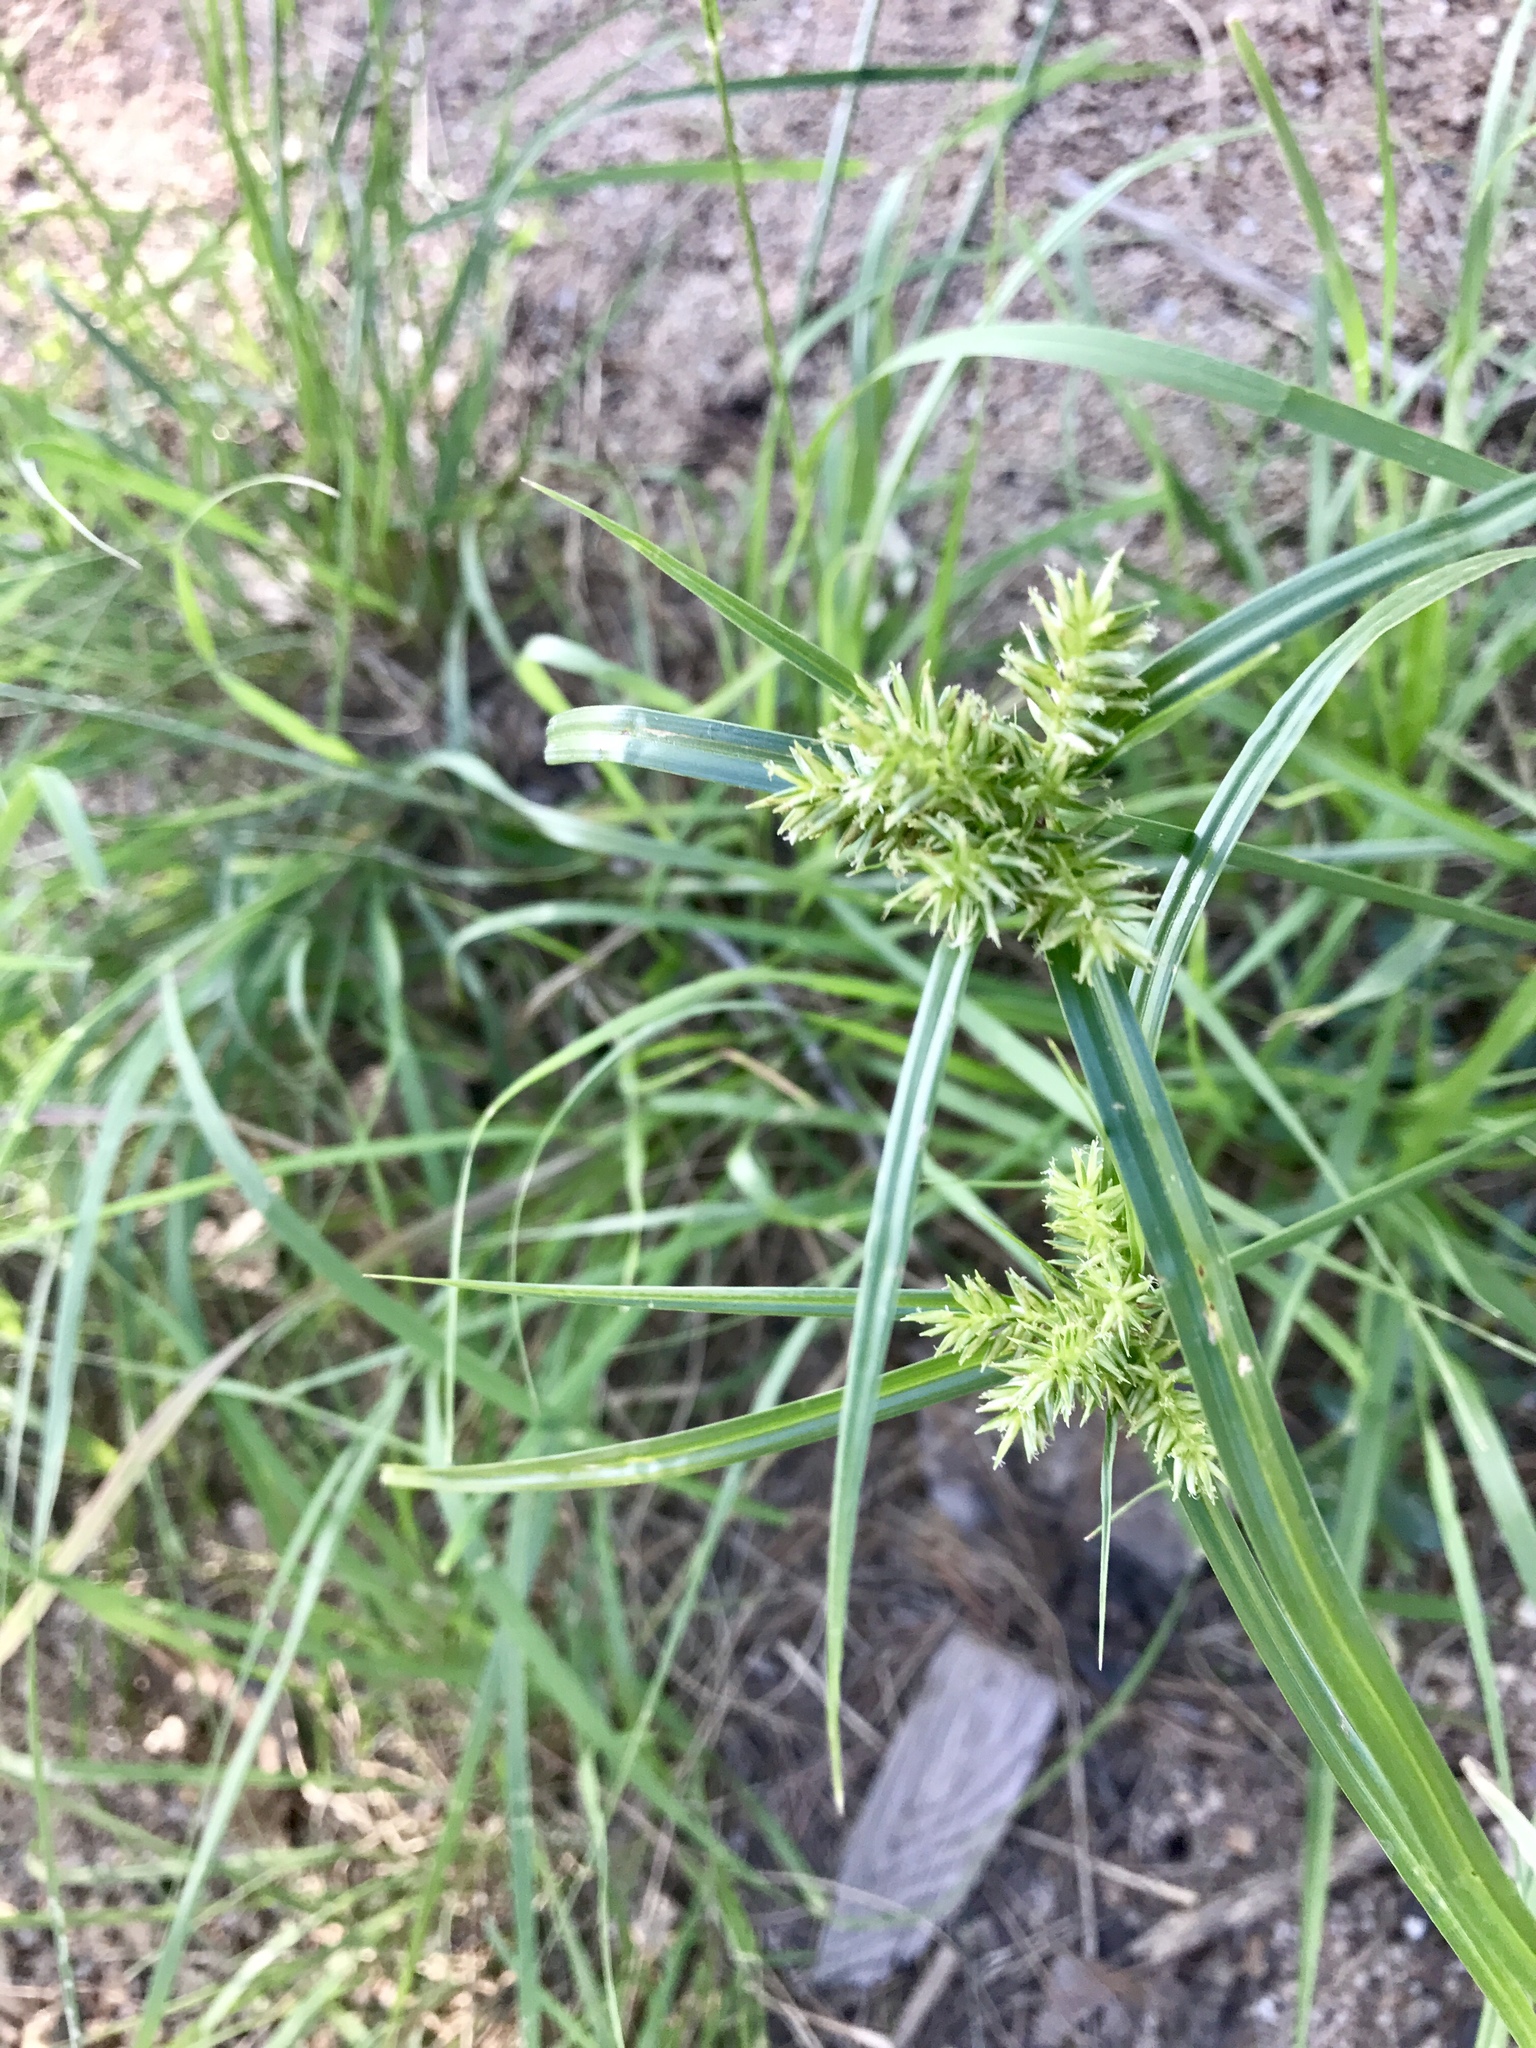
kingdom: Plantae
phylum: Tracheophyta
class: Liliopsida
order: Poales
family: Cyperaceae
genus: Cyperus
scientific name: Cyperus pallidicolor
